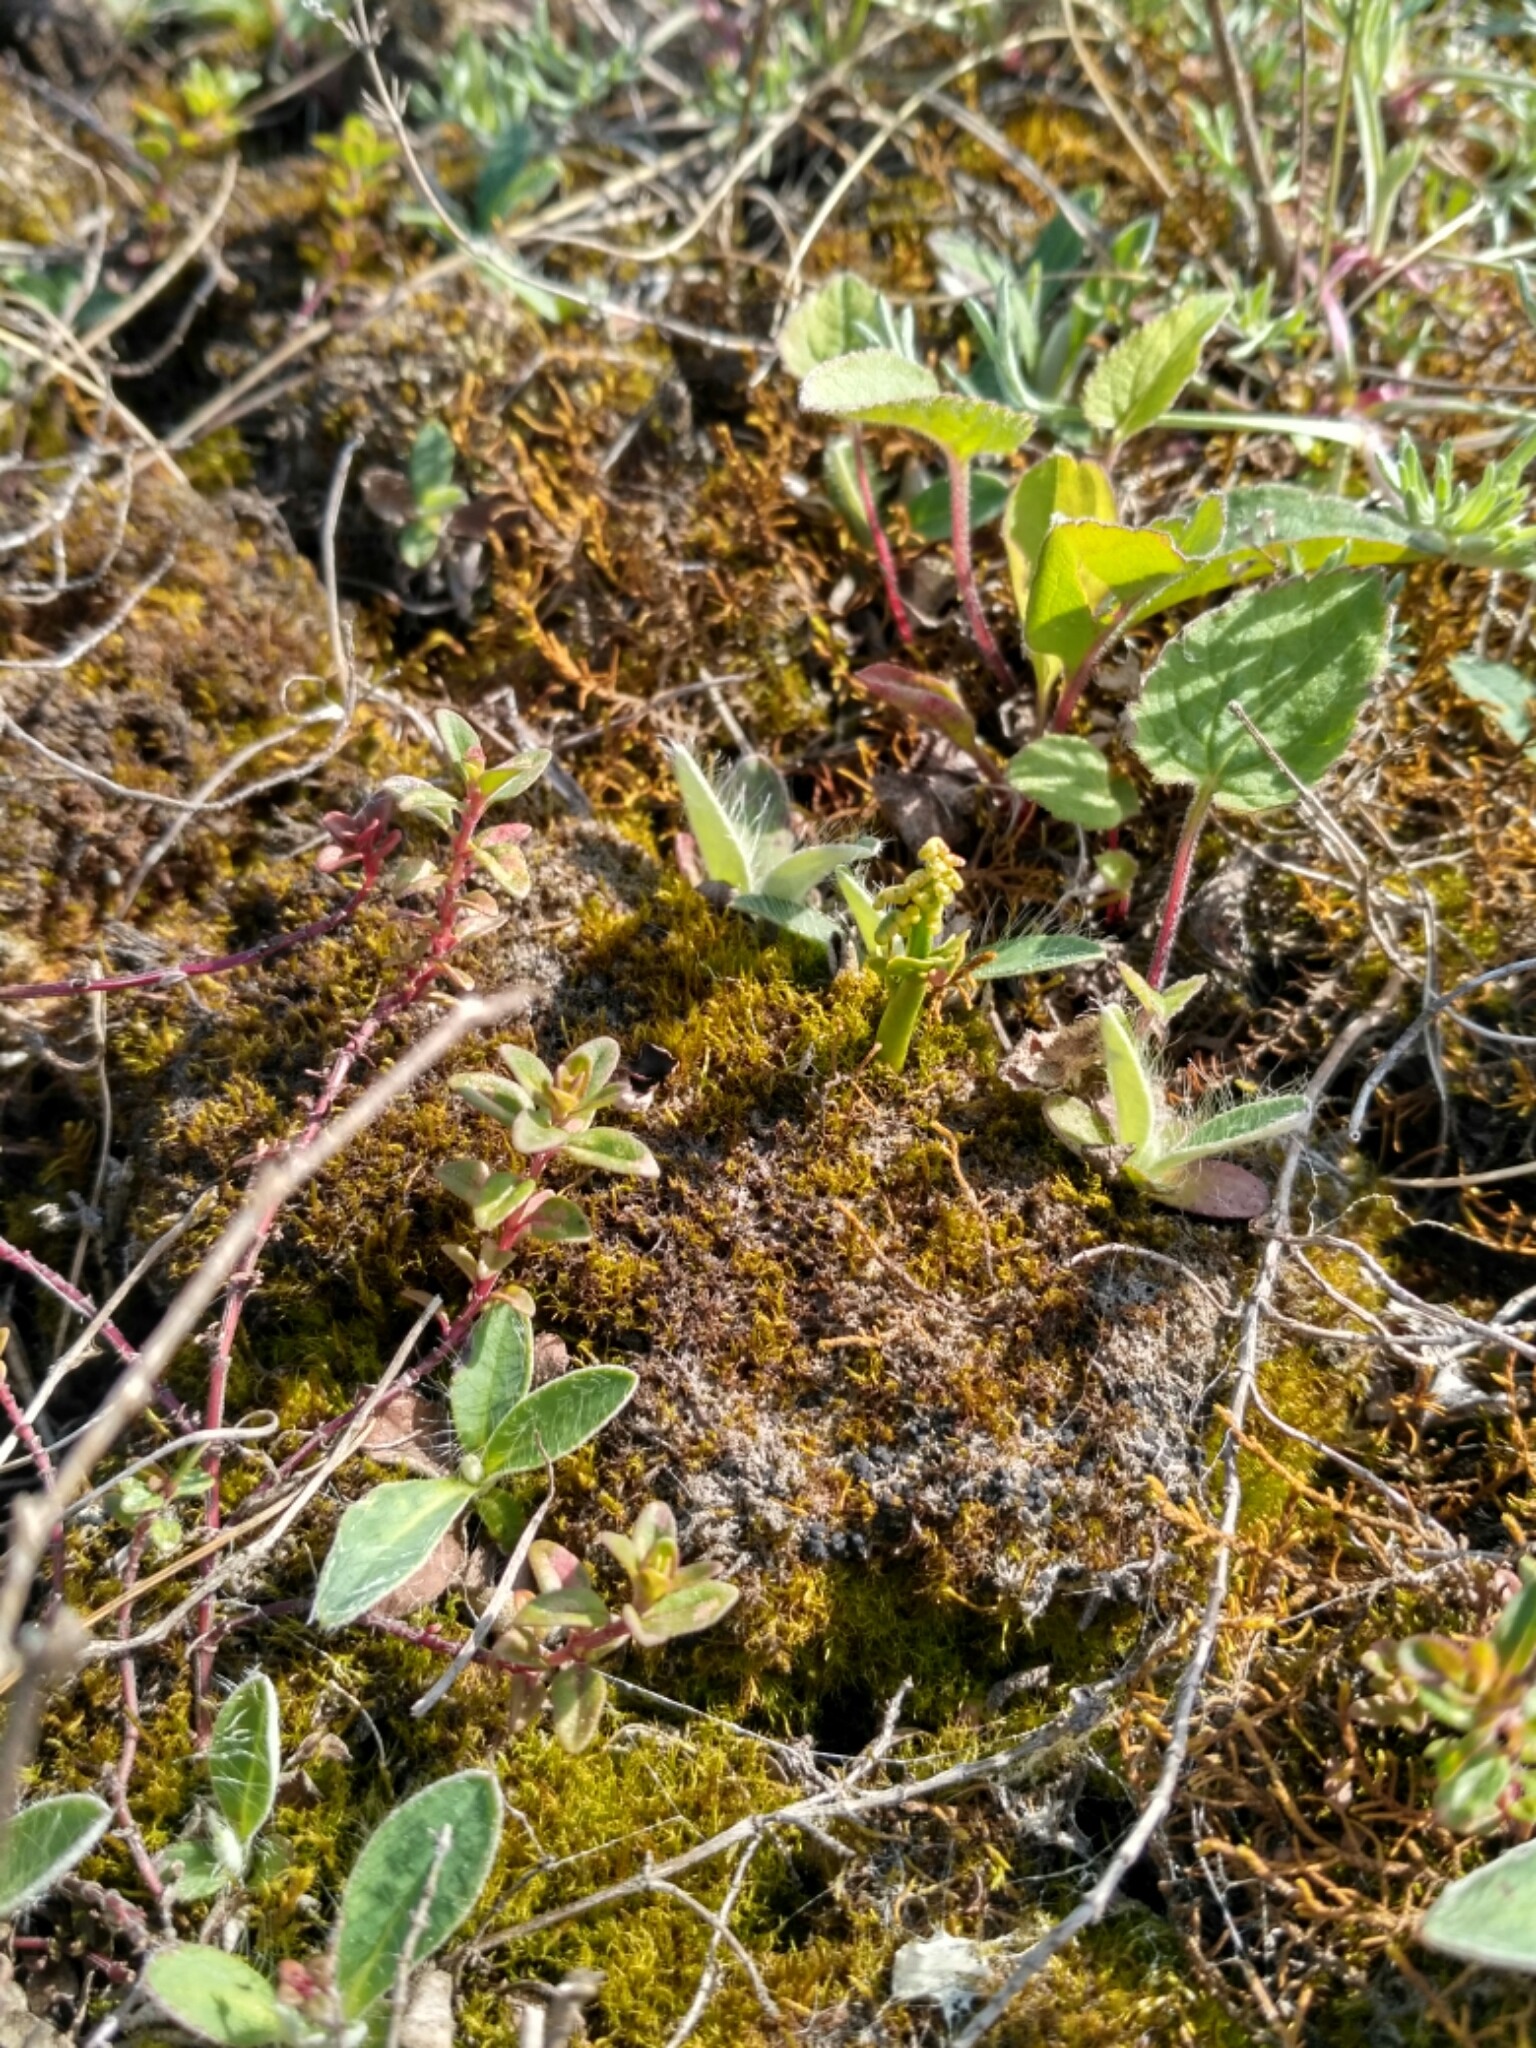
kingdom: Plantae
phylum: Tracheophyta
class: Polypodiopsida
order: Ophioglossales
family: Ophioglossaceae
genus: Botrychium
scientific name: Botrychium lunaria
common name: Moonwort
